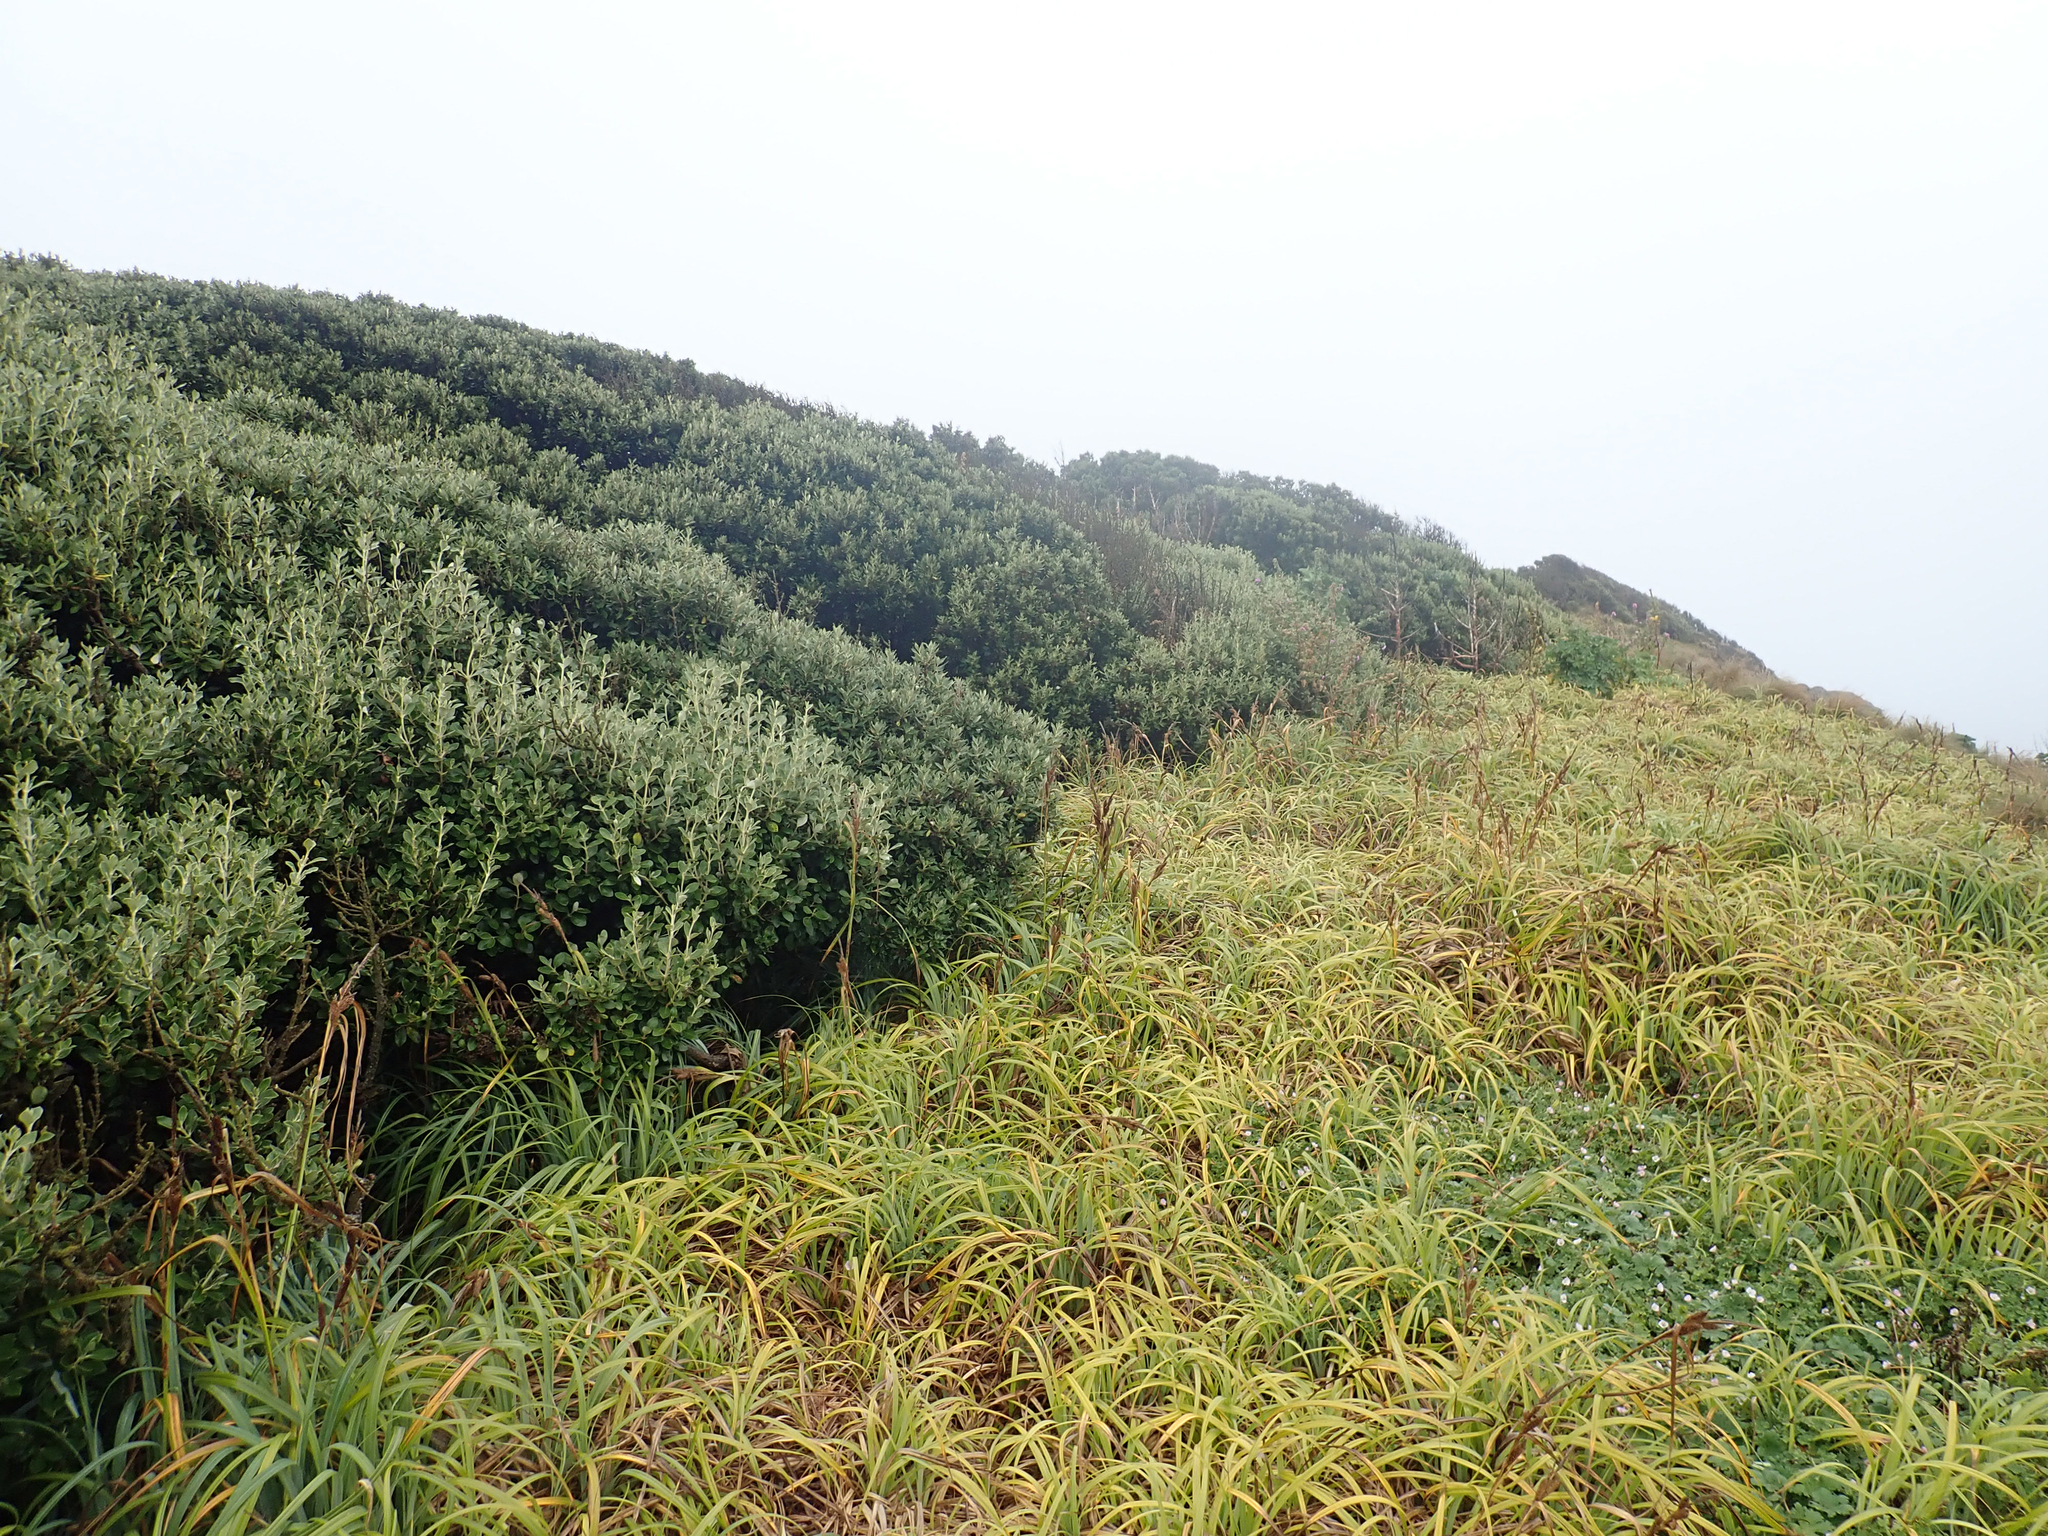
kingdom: Plantae
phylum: Tracheophyta
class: Liliopsida
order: Poales
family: Cyperaceae
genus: Carex
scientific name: Carex trifida
